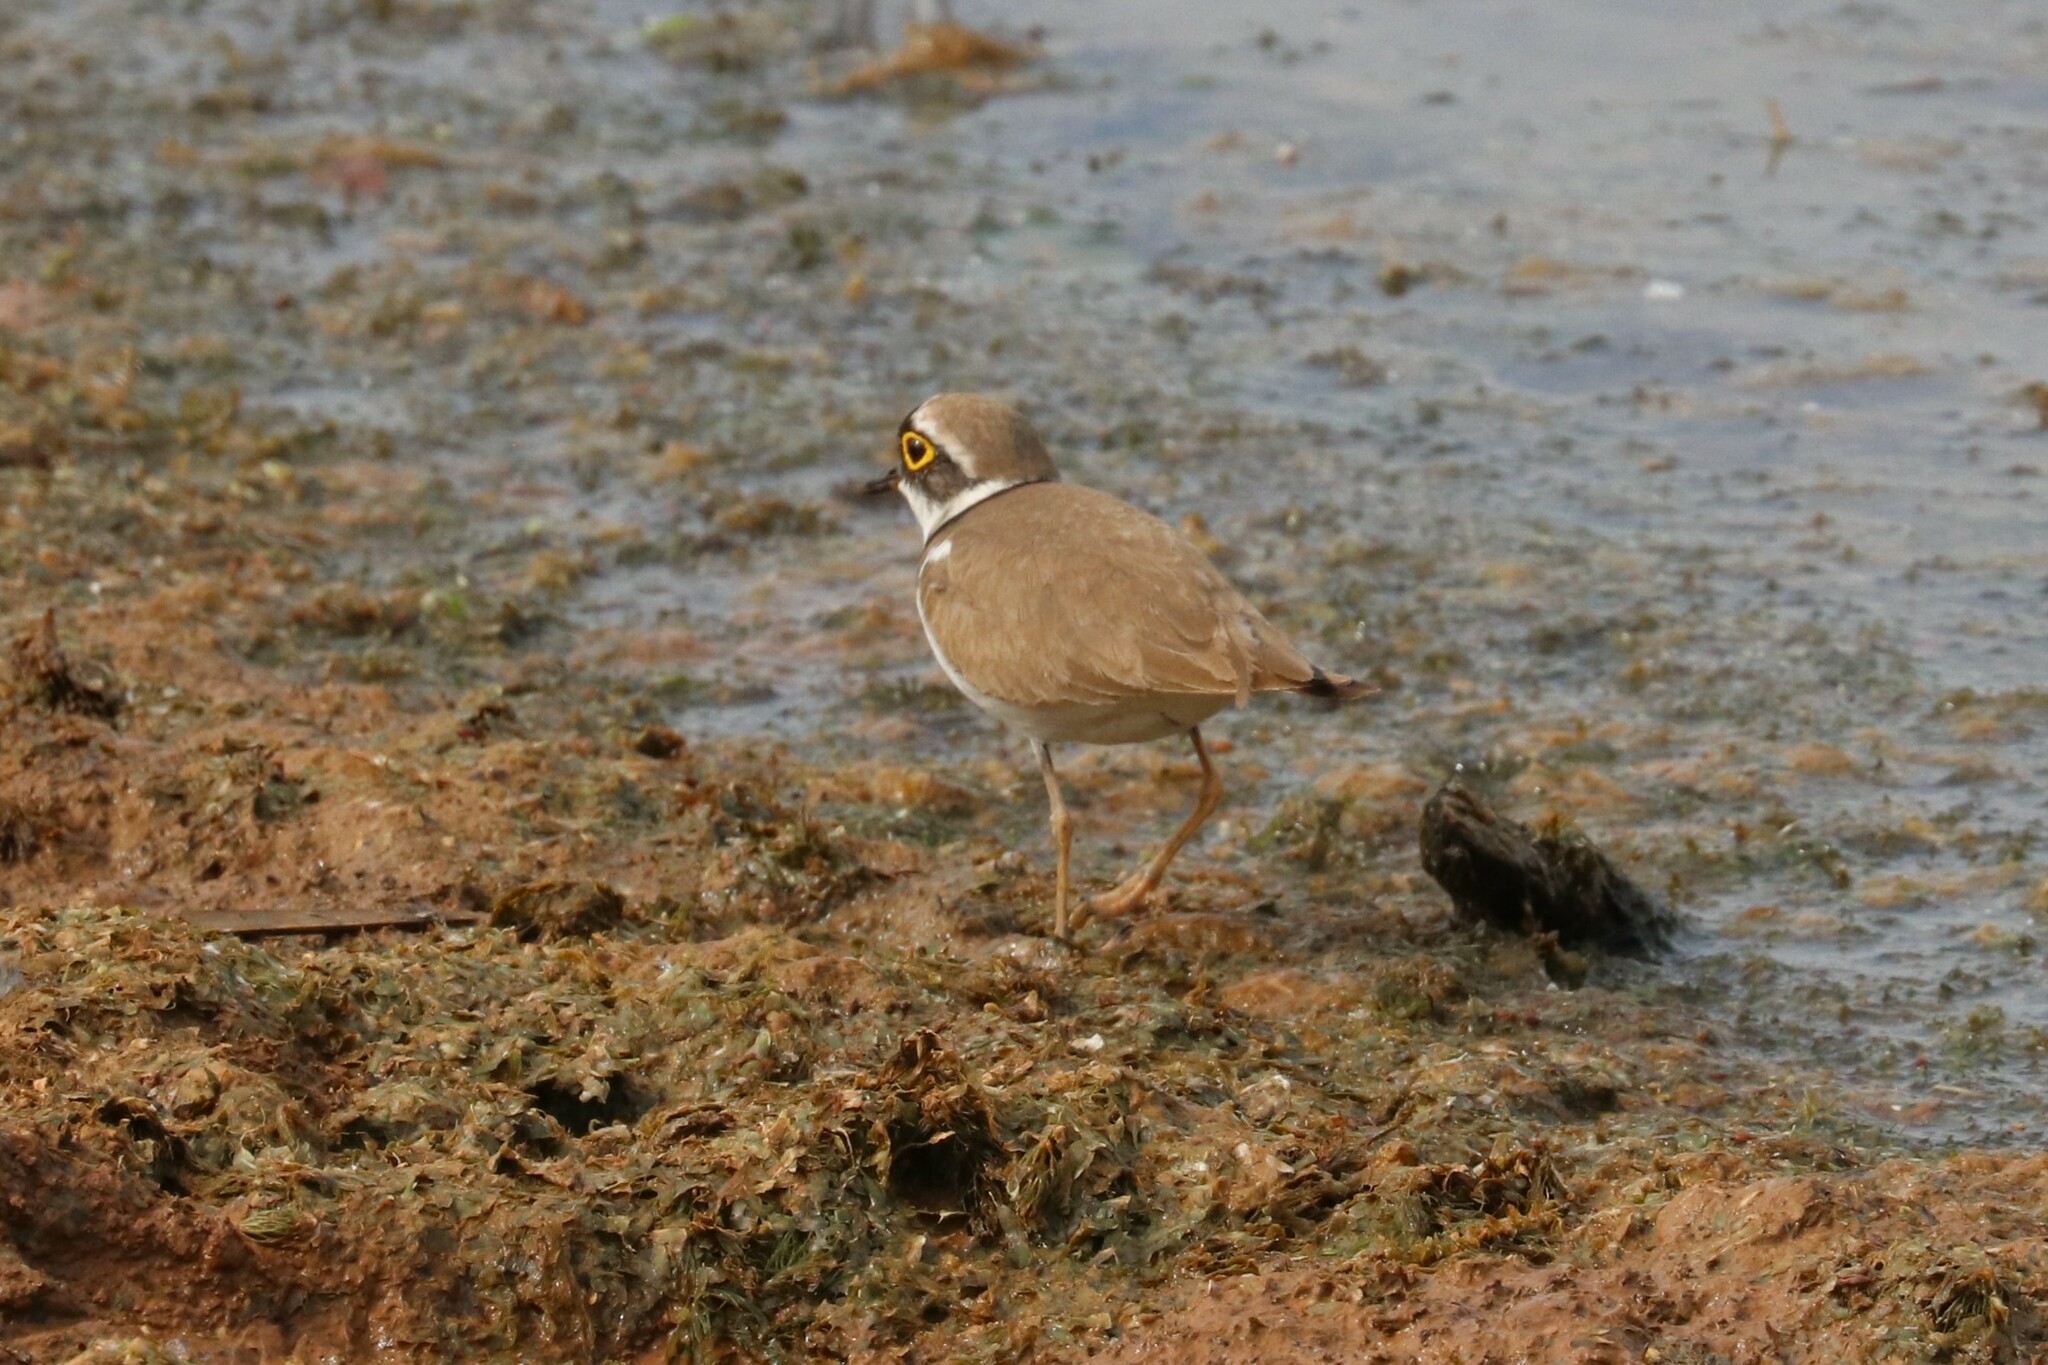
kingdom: Animalia
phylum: Chordata
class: Aves
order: Charadriiformes
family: Charadriidae
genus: Charadrius
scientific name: Charadrius dubius
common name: Little ringed plover
